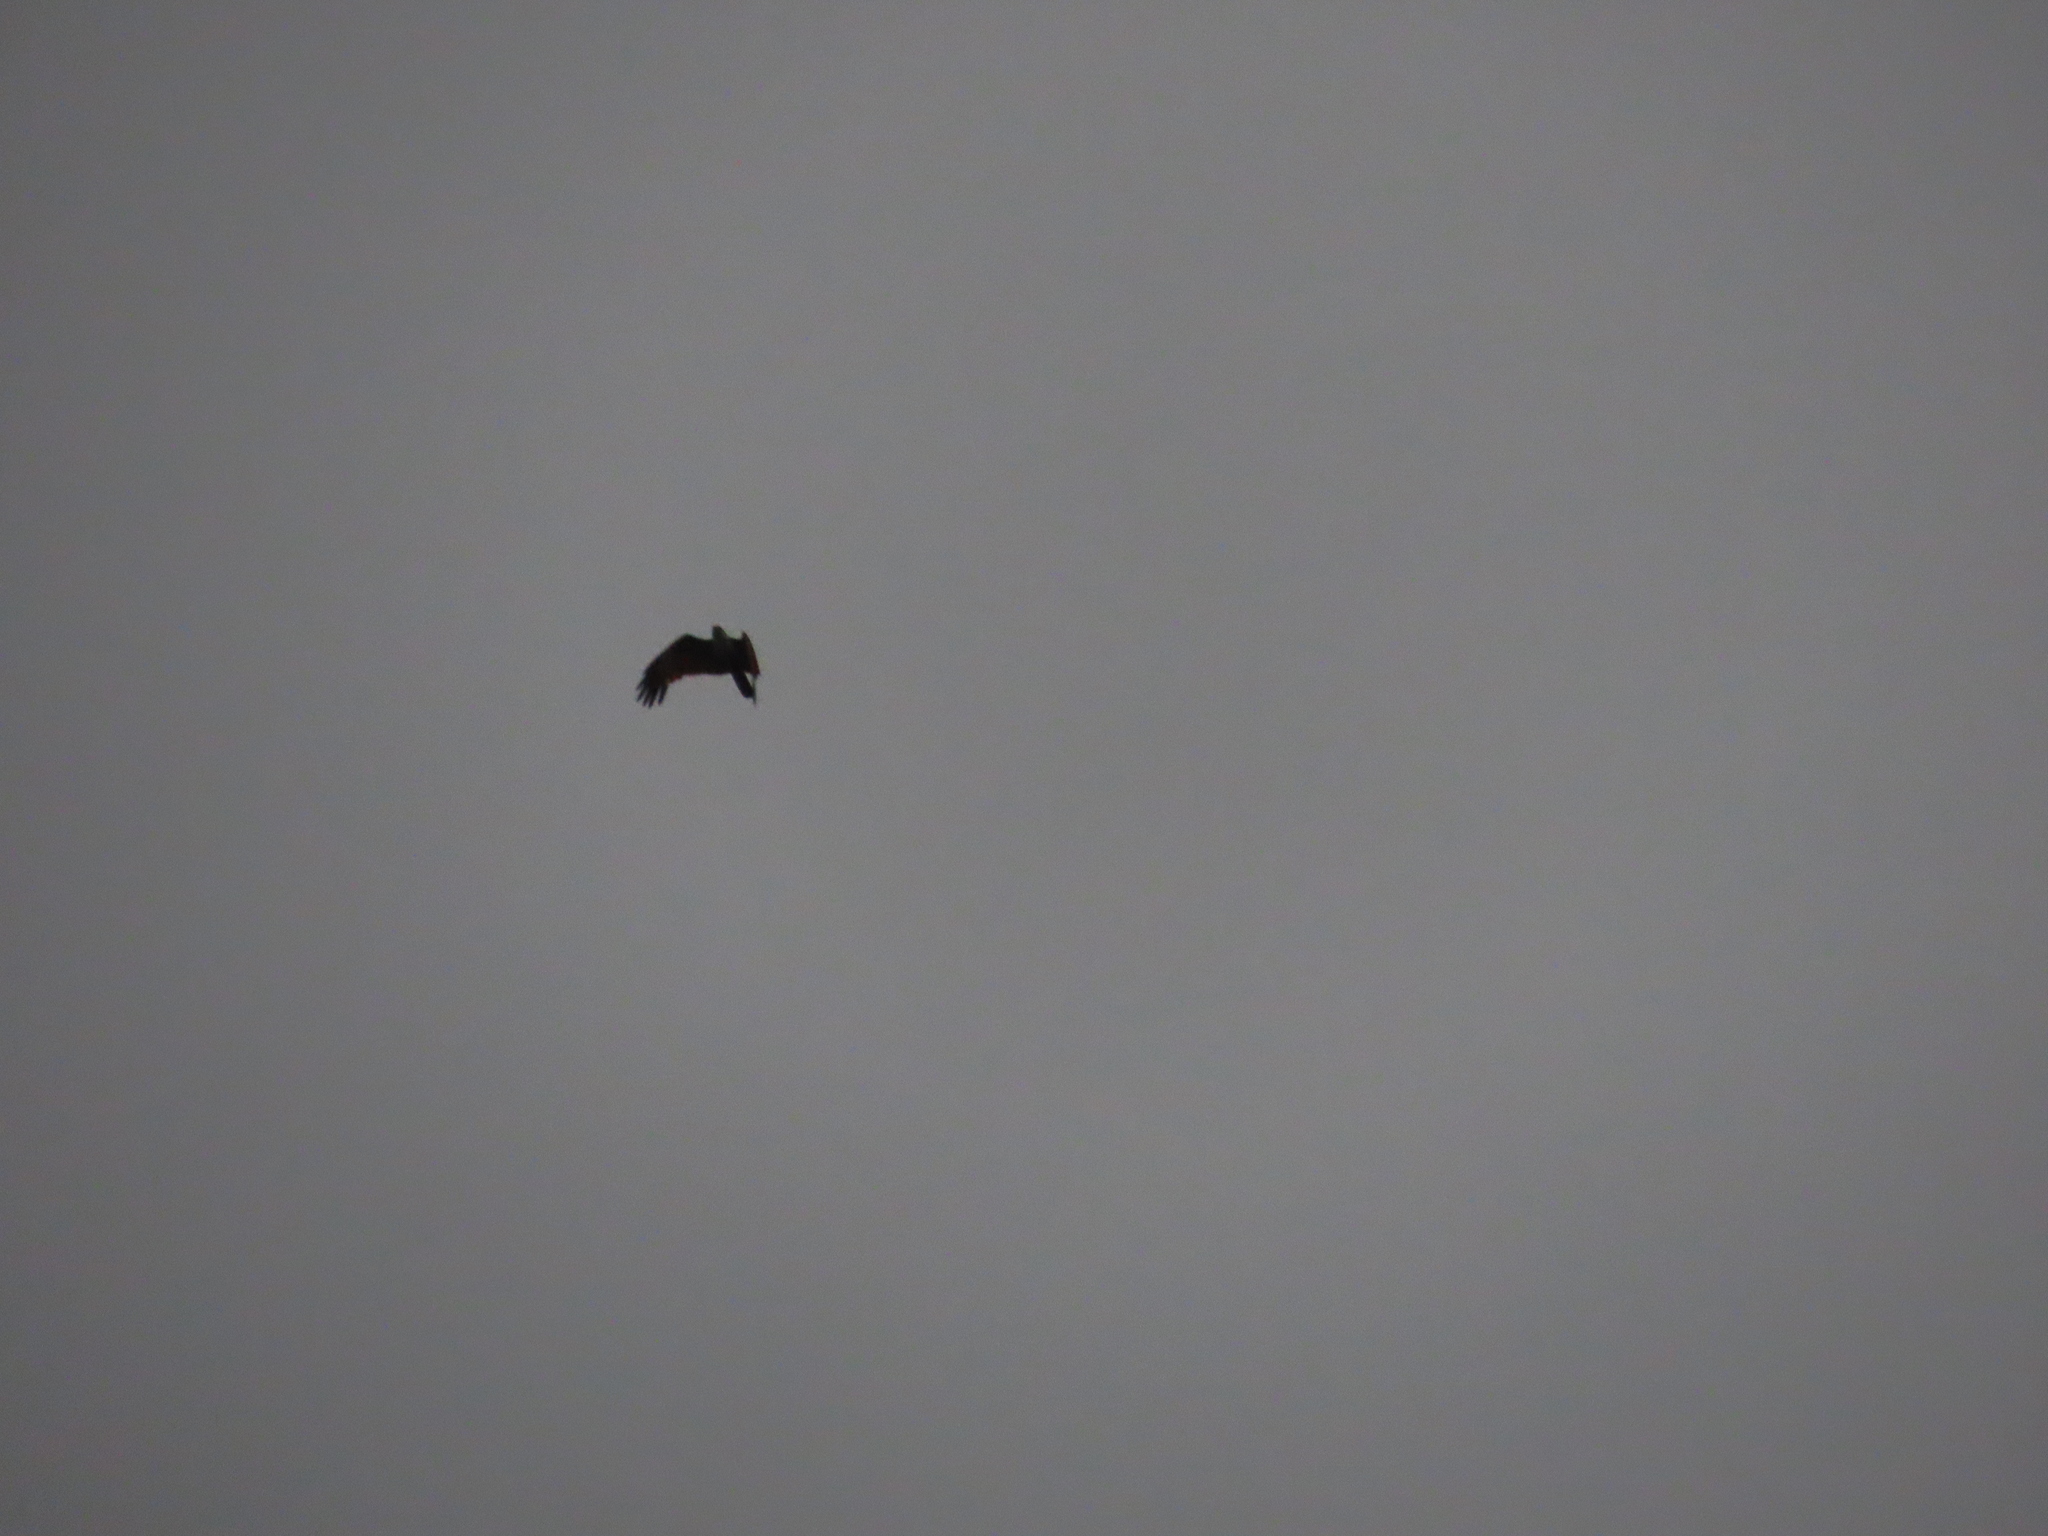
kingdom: Animalia
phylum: Chordata
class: Aves
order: Accipitriformes
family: Accipitridae
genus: Haliastur
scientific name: Haliastur indus
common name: Brahminy kite
